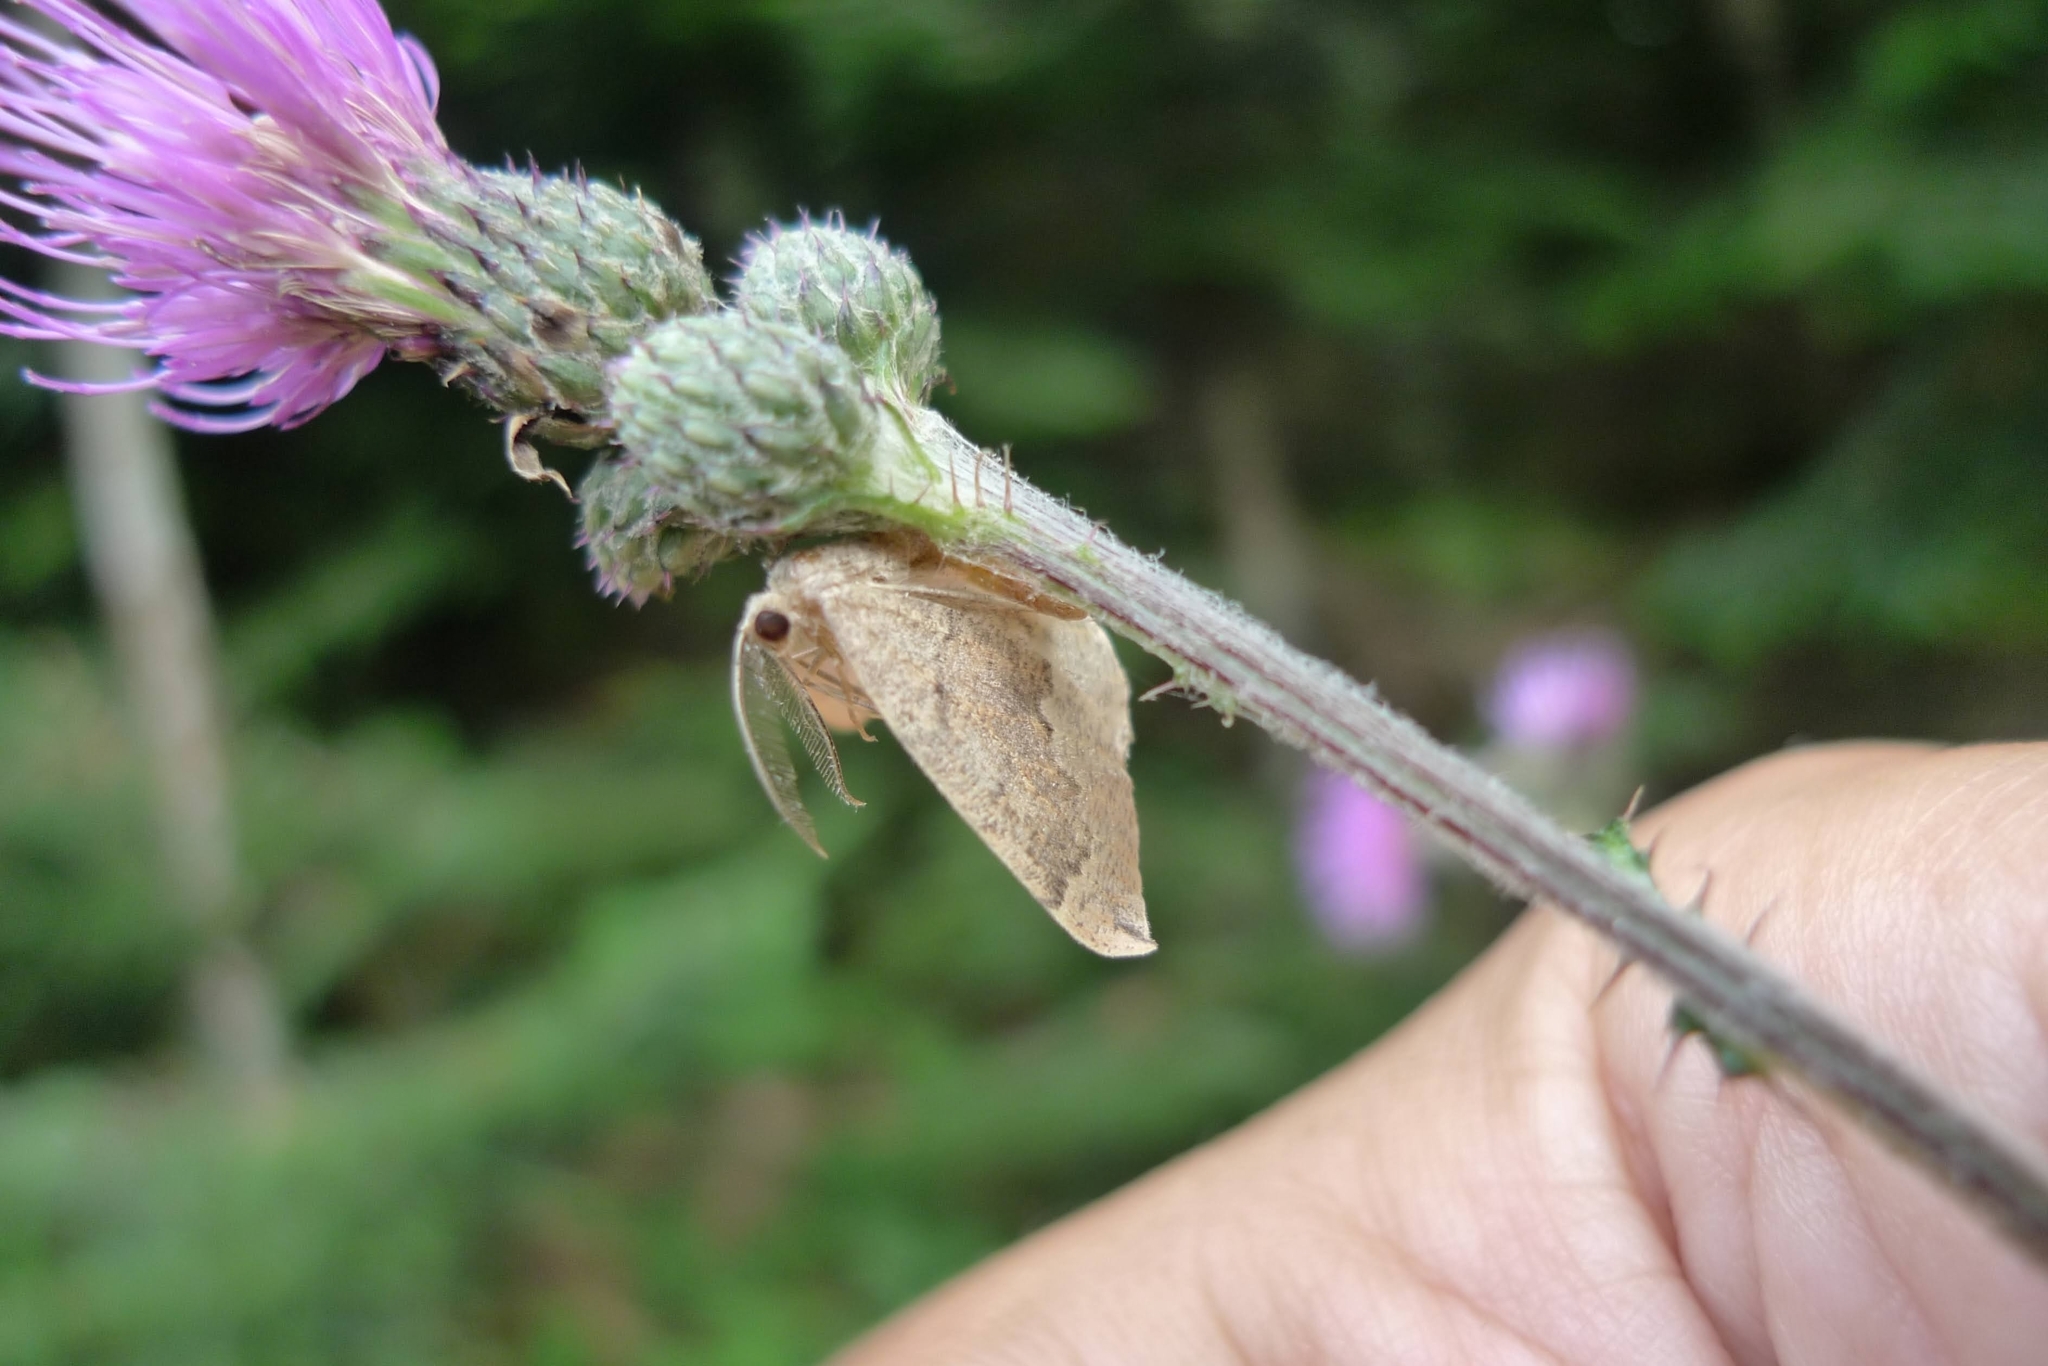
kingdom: Animalia
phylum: Arthropoda
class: Insecta
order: Lepidoptera
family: Geometridae
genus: Pungeleria
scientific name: Pungeleria capreolaria
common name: Banded pine carpet
